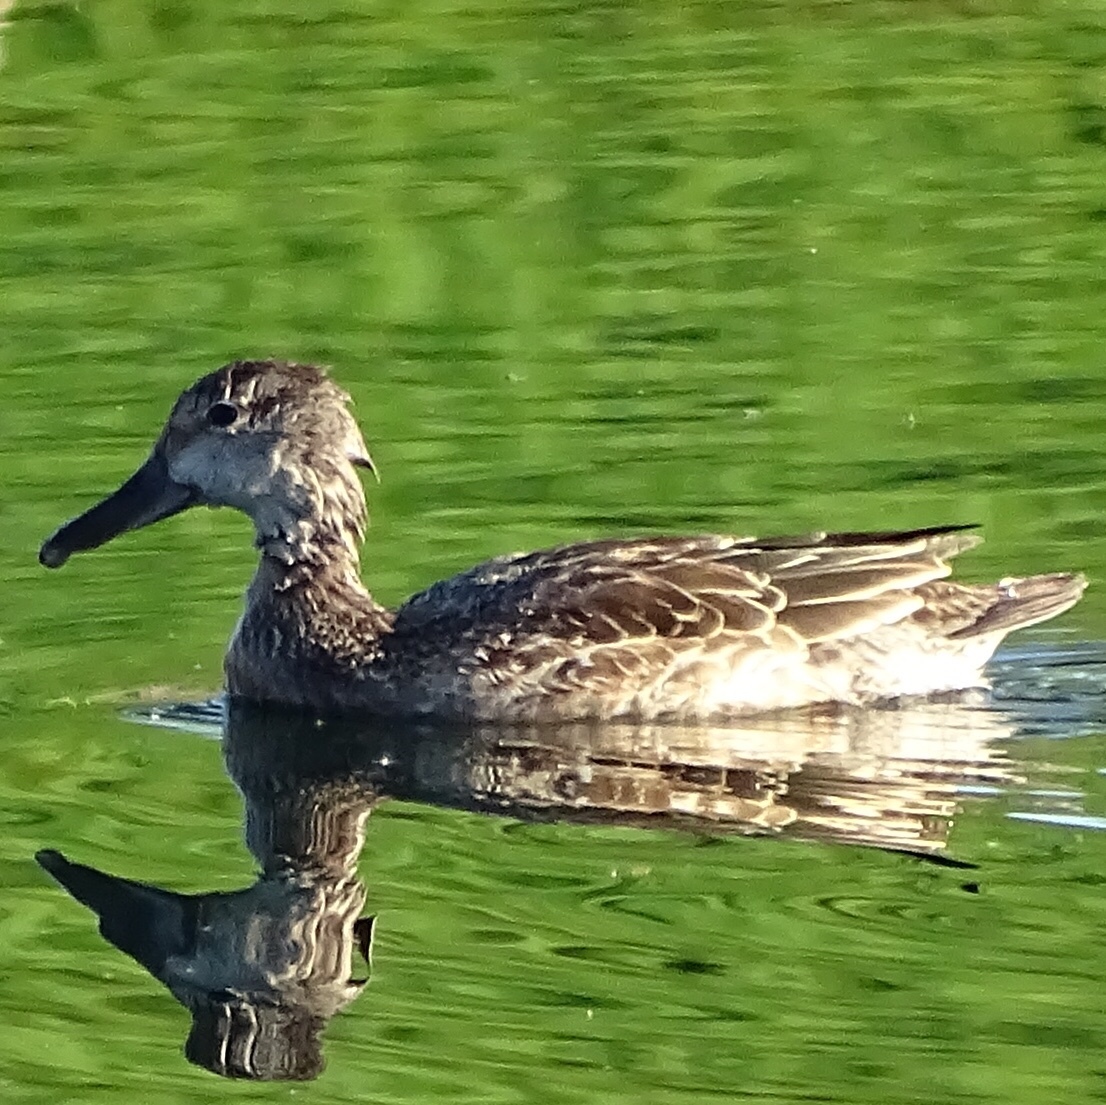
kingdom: Animalia
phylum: Chordata
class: Aves
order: Anseriformes
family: Anatidae
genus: Spatula
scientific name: Spatula discors
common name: Blue-winged teal
